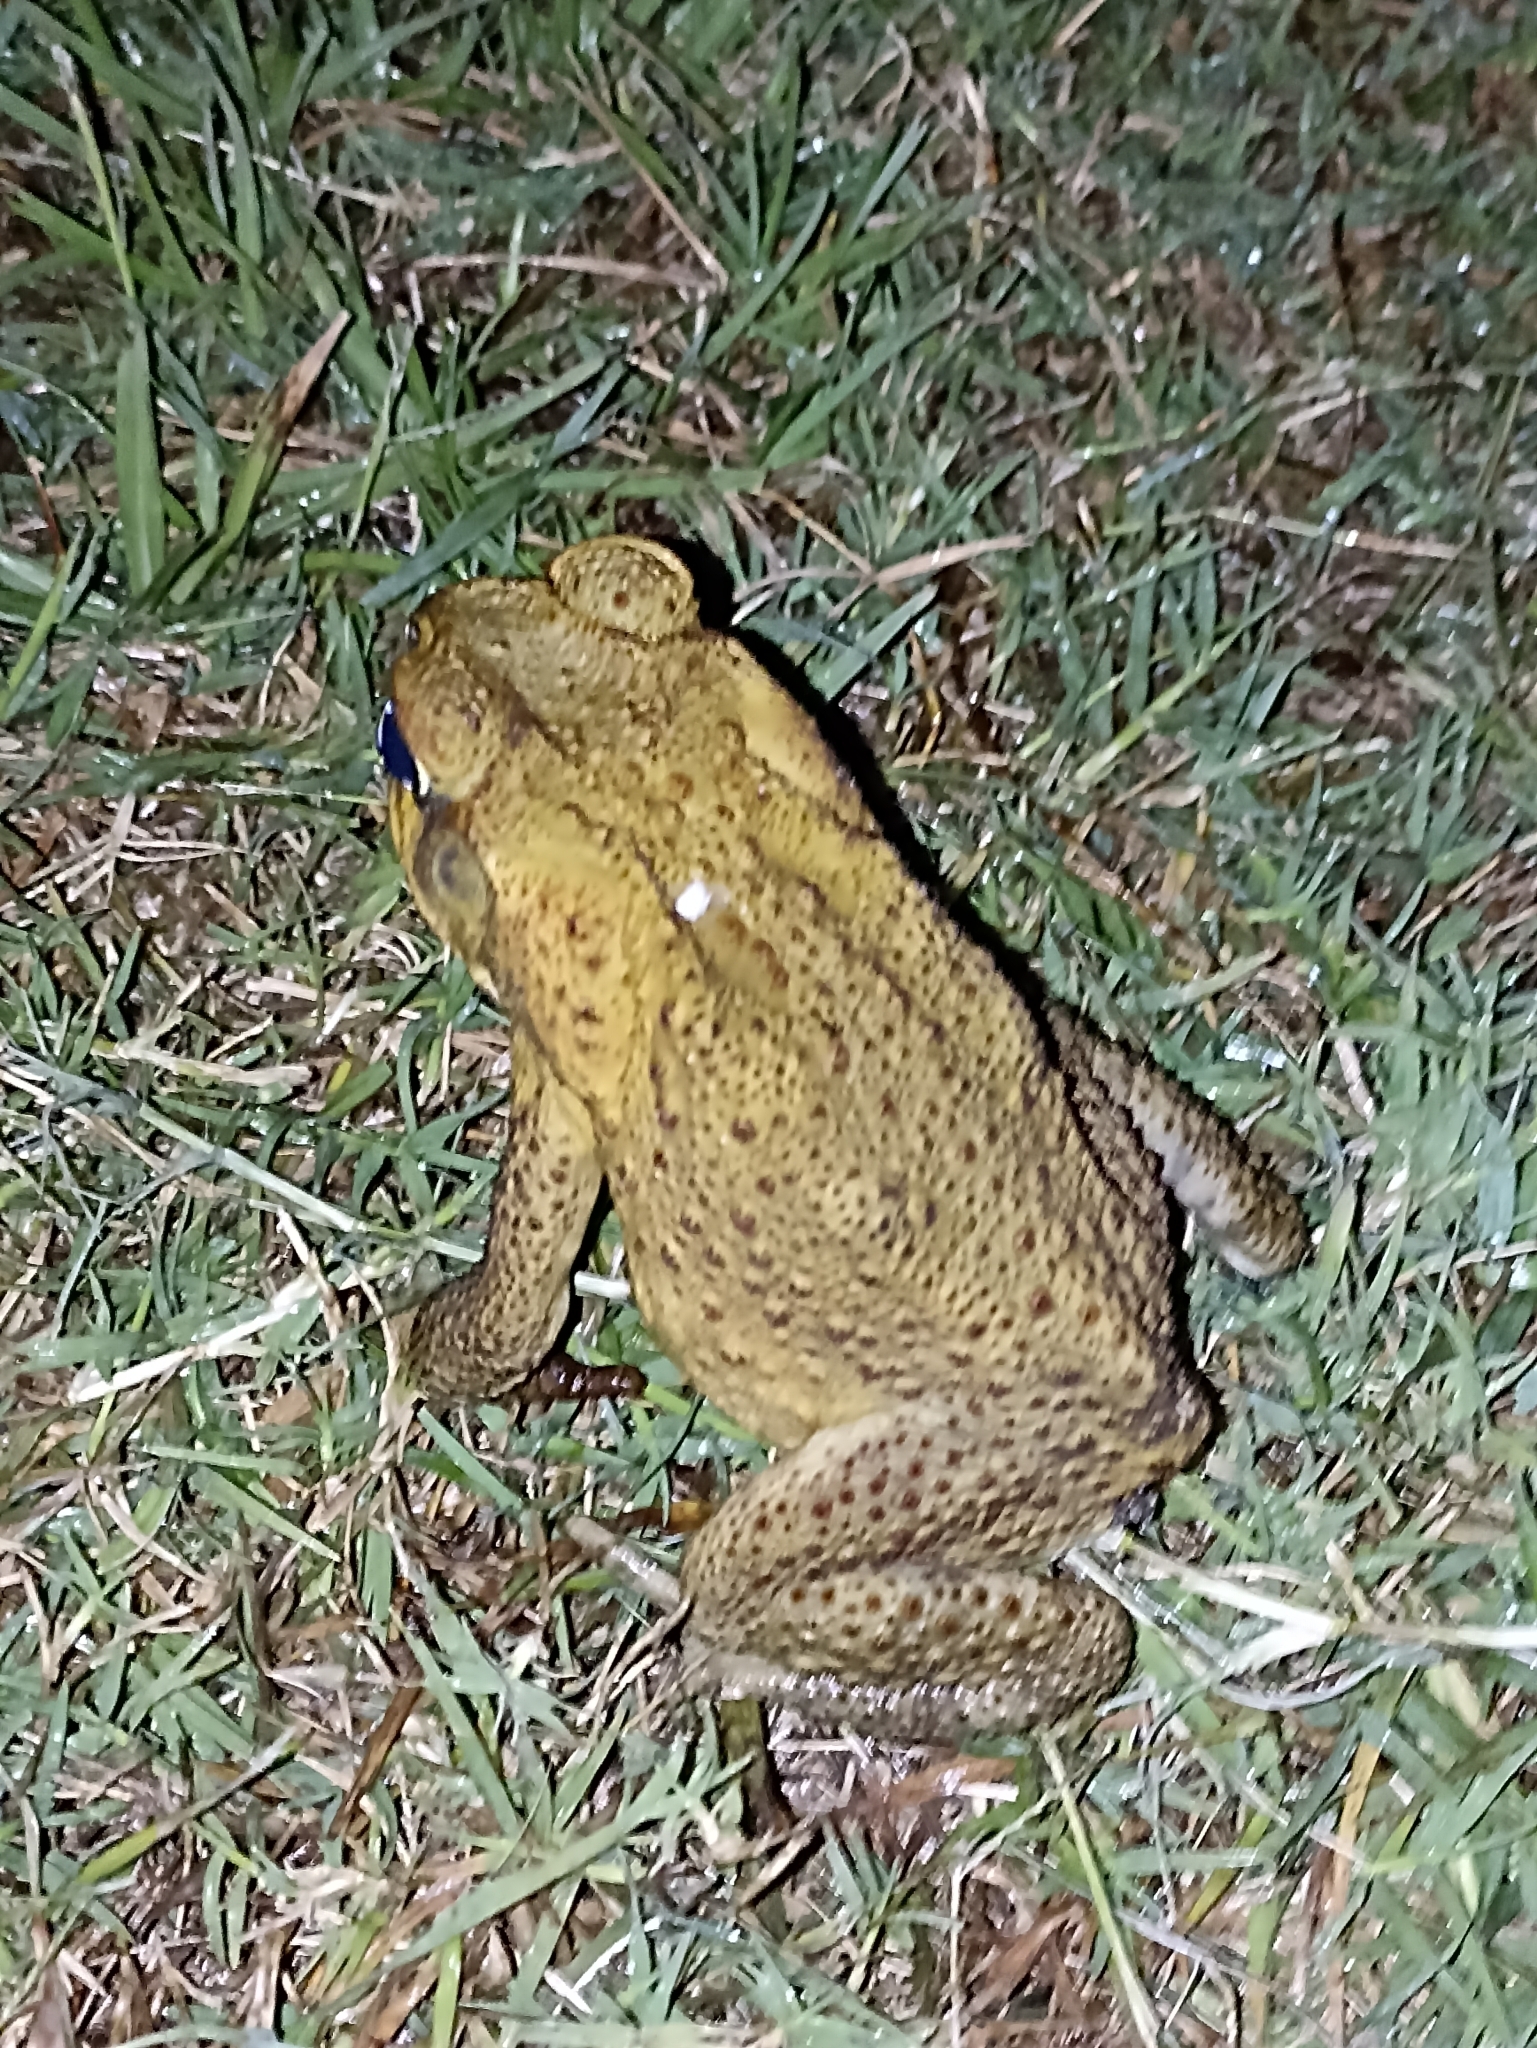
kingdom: Animalia
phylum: Chordata
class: Amphibia
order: Anura
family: Bufonidae
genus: Rhinella
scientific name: Rhinella marina
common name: Cane toad
